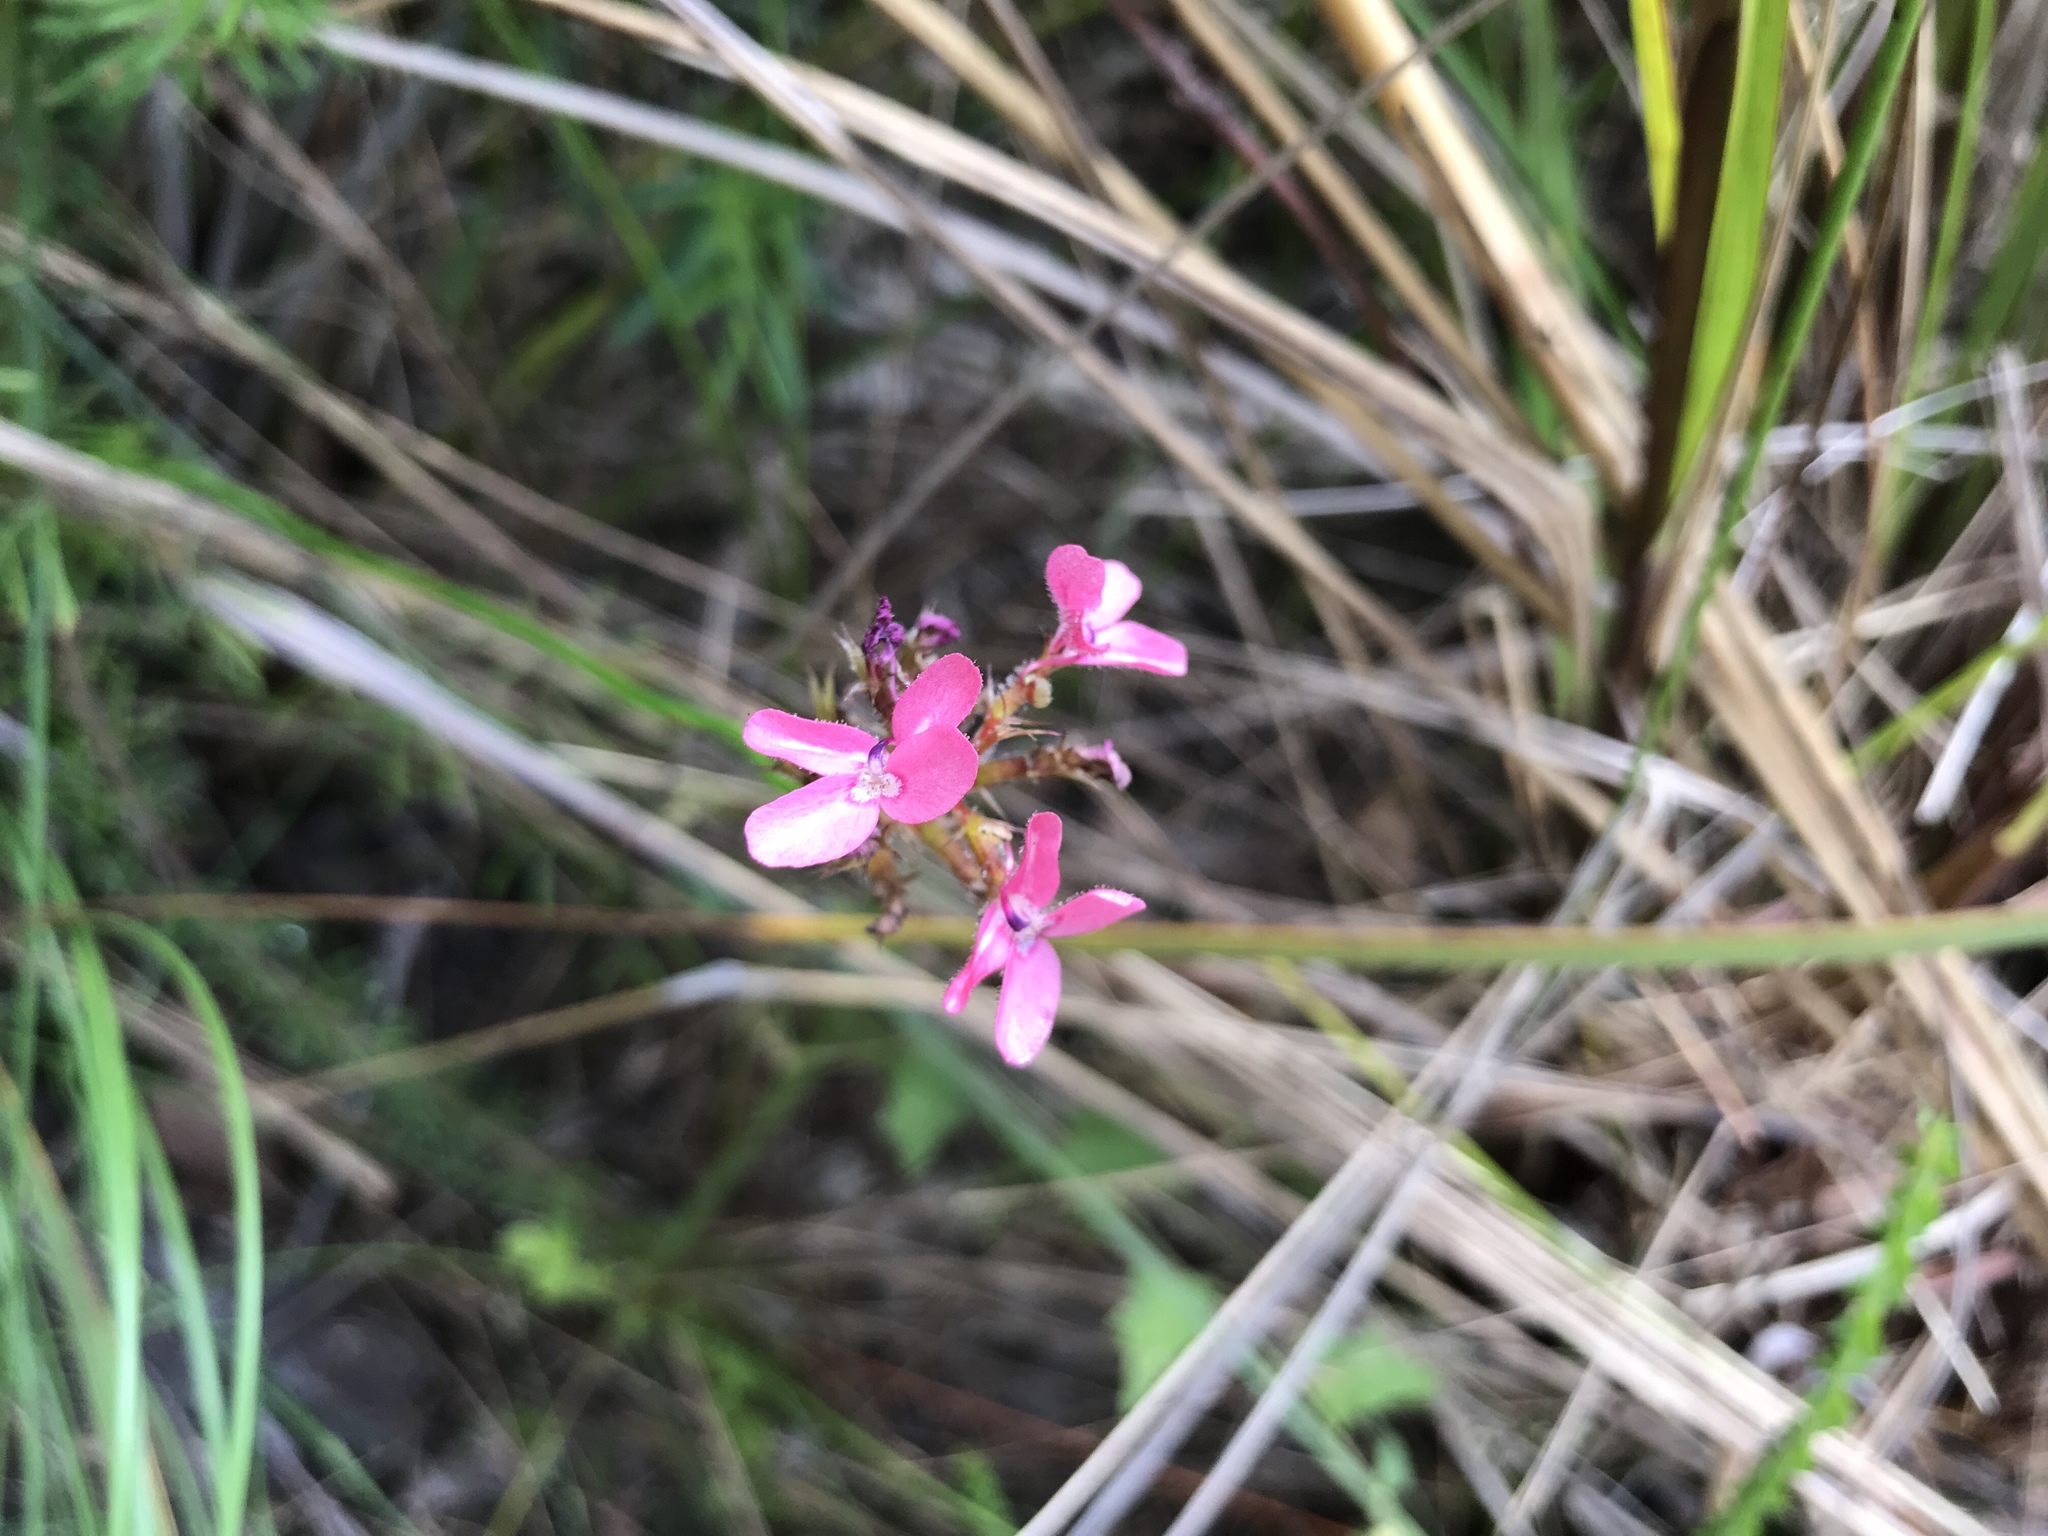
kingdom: Plantae
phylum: Tracheophyta
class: Magnoliopsida
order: Asterales
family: Stylidiaceae
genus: Stylidium
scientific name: Stylidium squamosotuberosum
